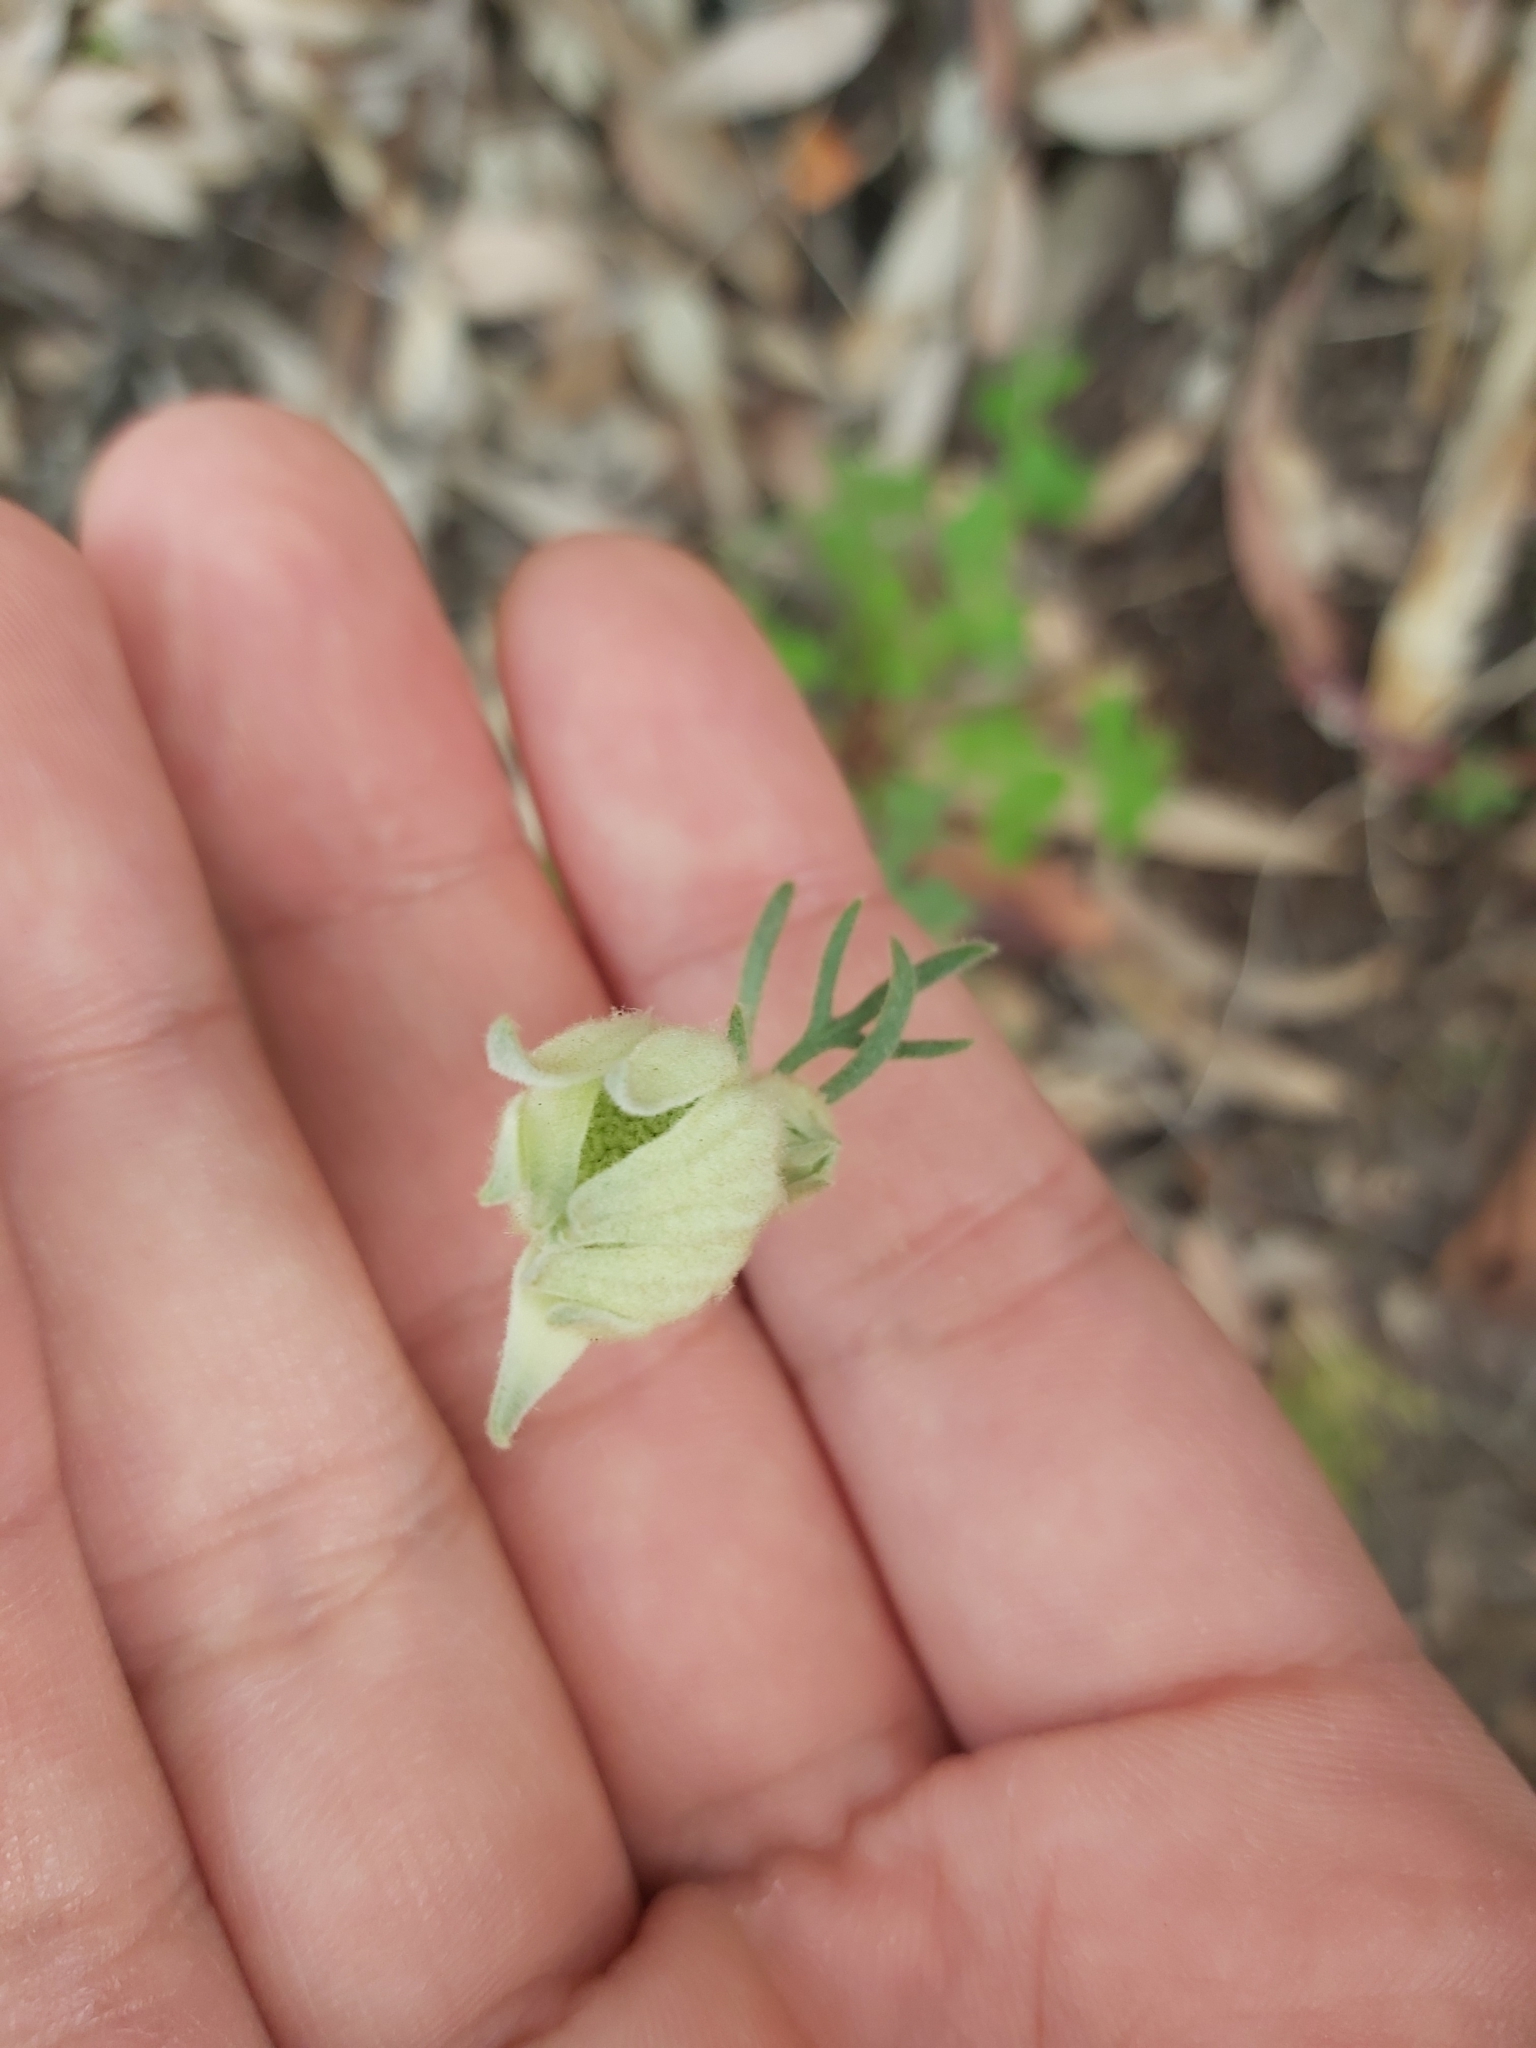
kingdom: Plantae
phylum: Tracheophyta
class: Magnoliopsida
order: Apiales
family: Apiaceae
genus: Actinotus
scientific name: Actinotus helianthi
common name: Flannel-flower
